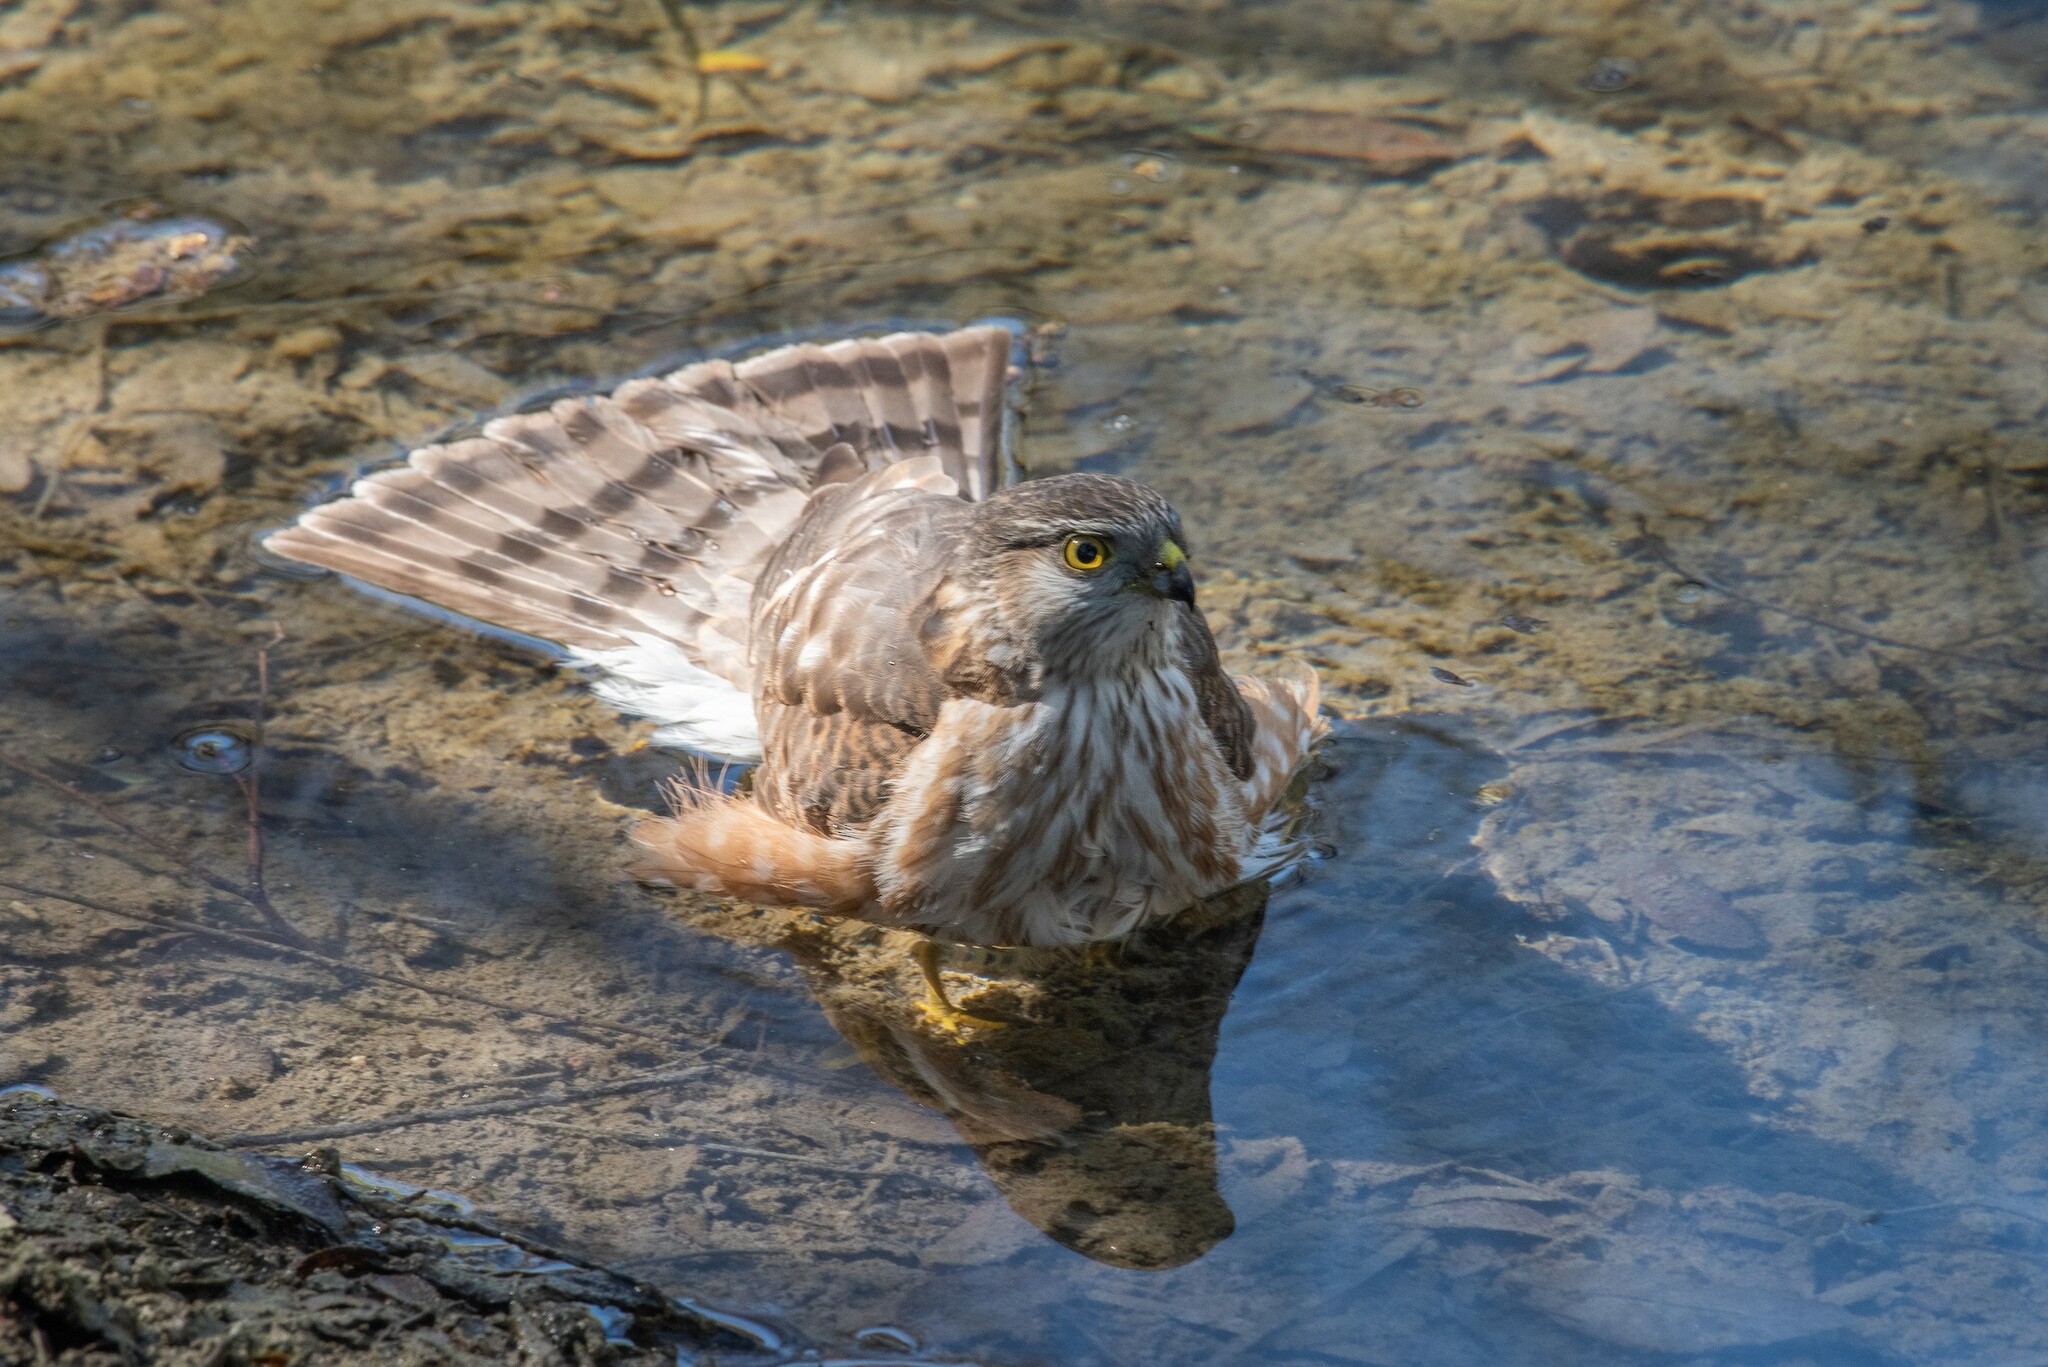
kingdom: Animalia
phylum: Chordata
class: Aves
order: Accipitriformes
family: Accipitridae
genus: Accipiter
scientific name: Accipiter striatus
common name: Sharp-shinned hawk
